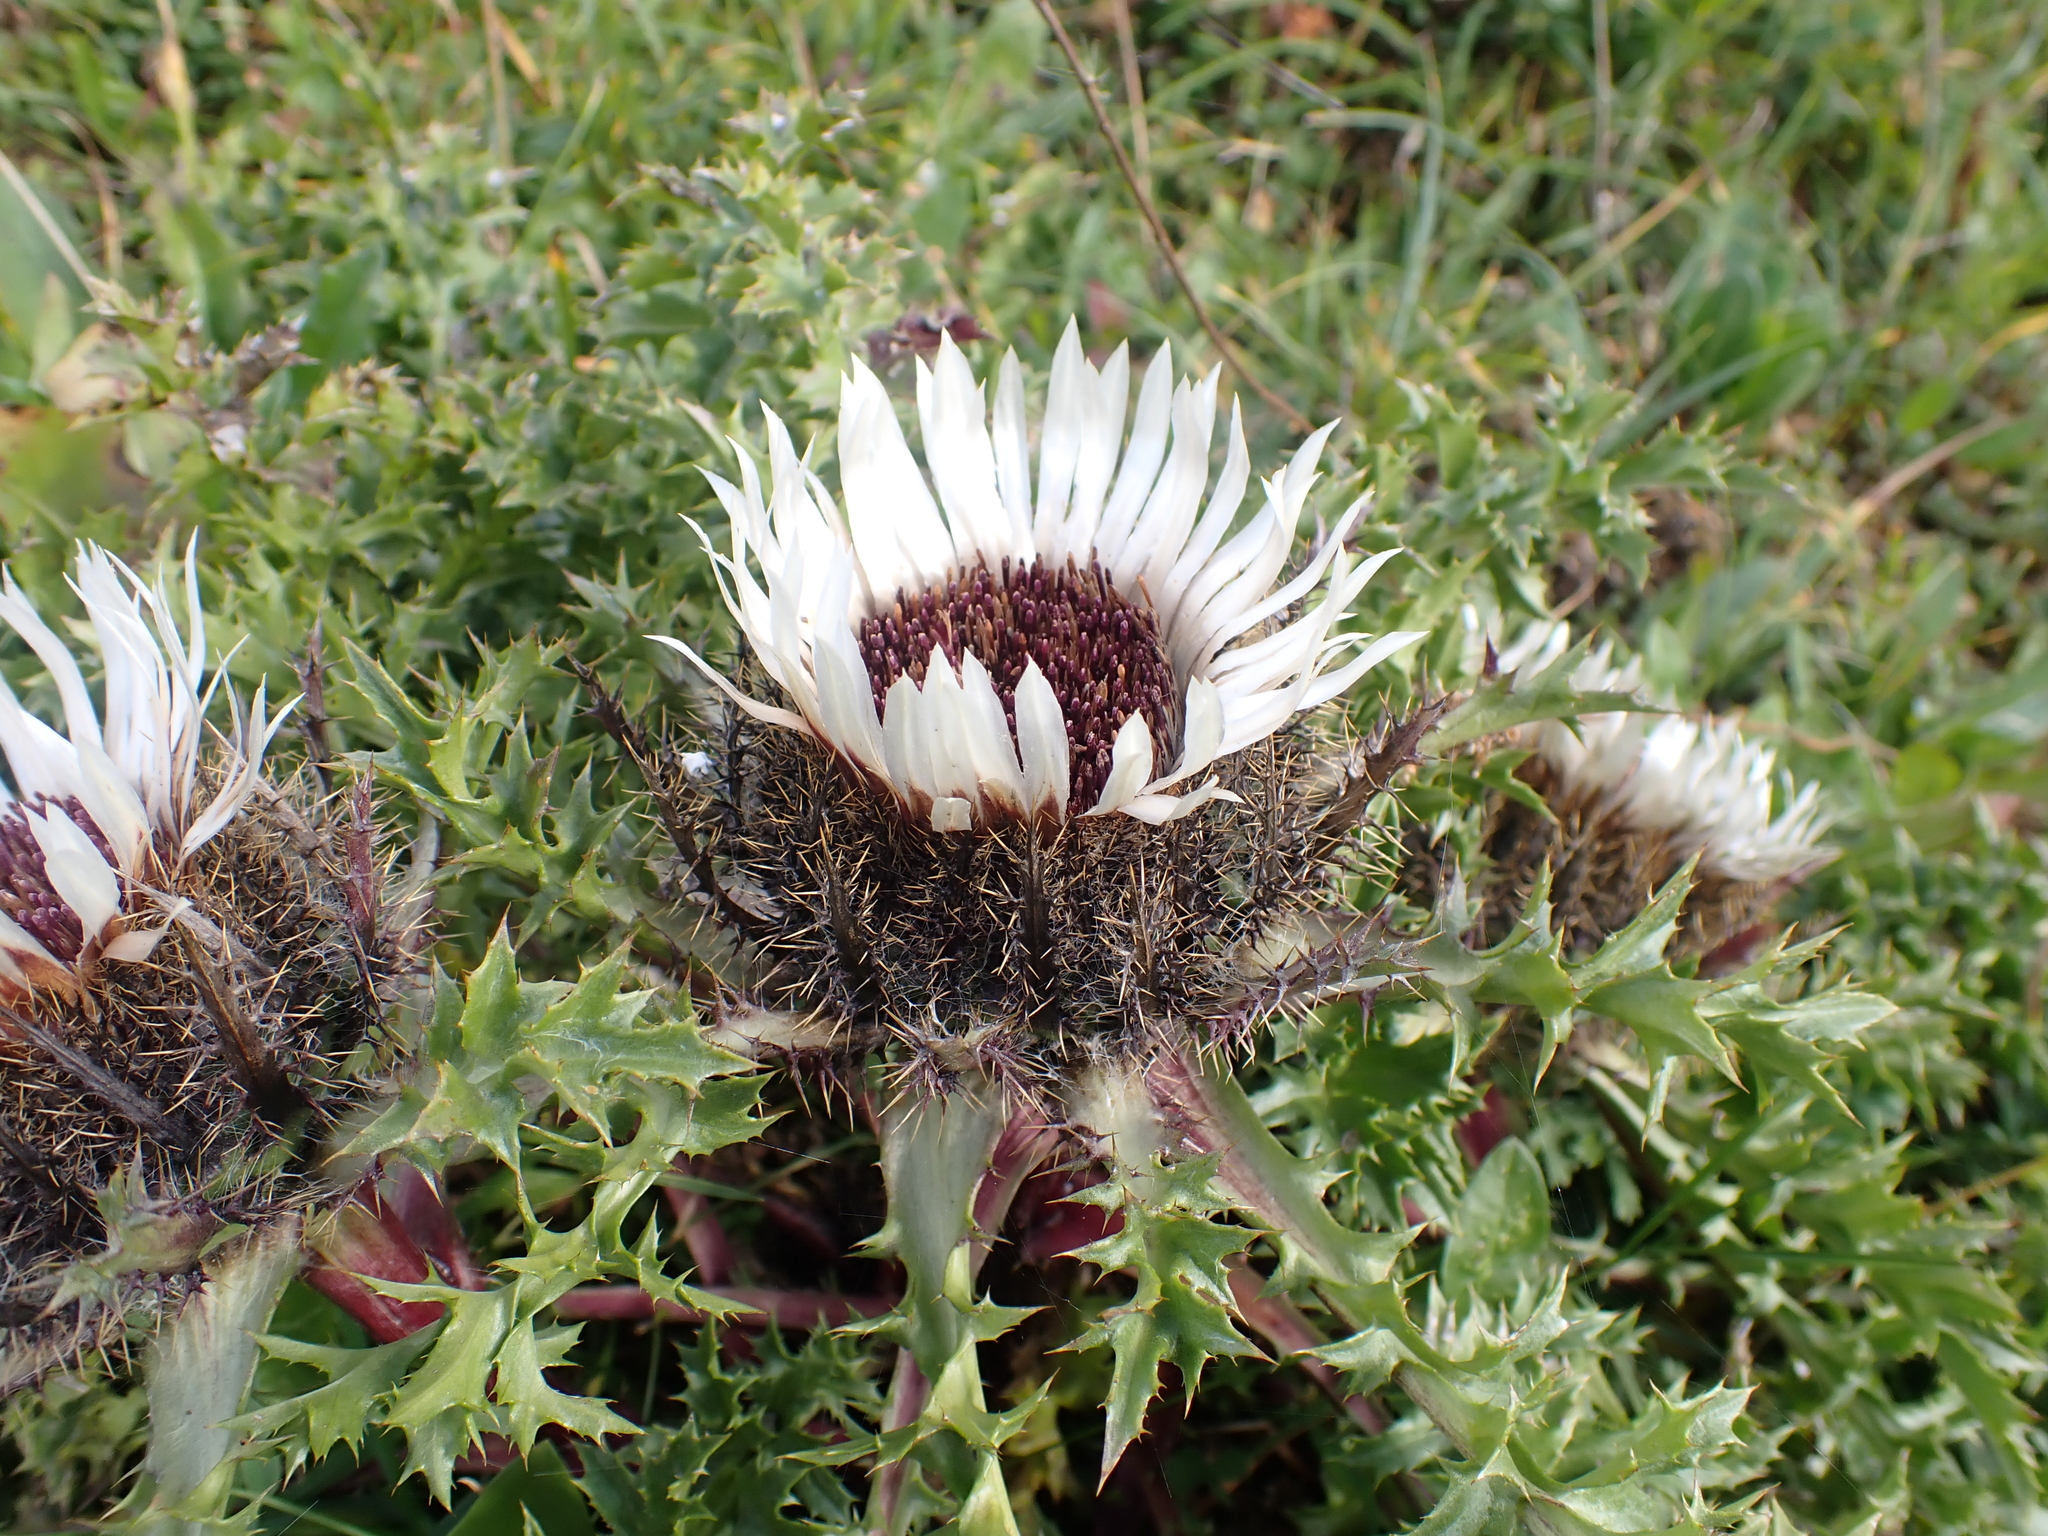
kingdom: Plantae
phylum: Tracheophyta
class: Magnoliopsida
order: Asterales
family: Asteraceae
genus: Carlina
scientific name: Carlina acaulis
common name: Stemless carline thistle
